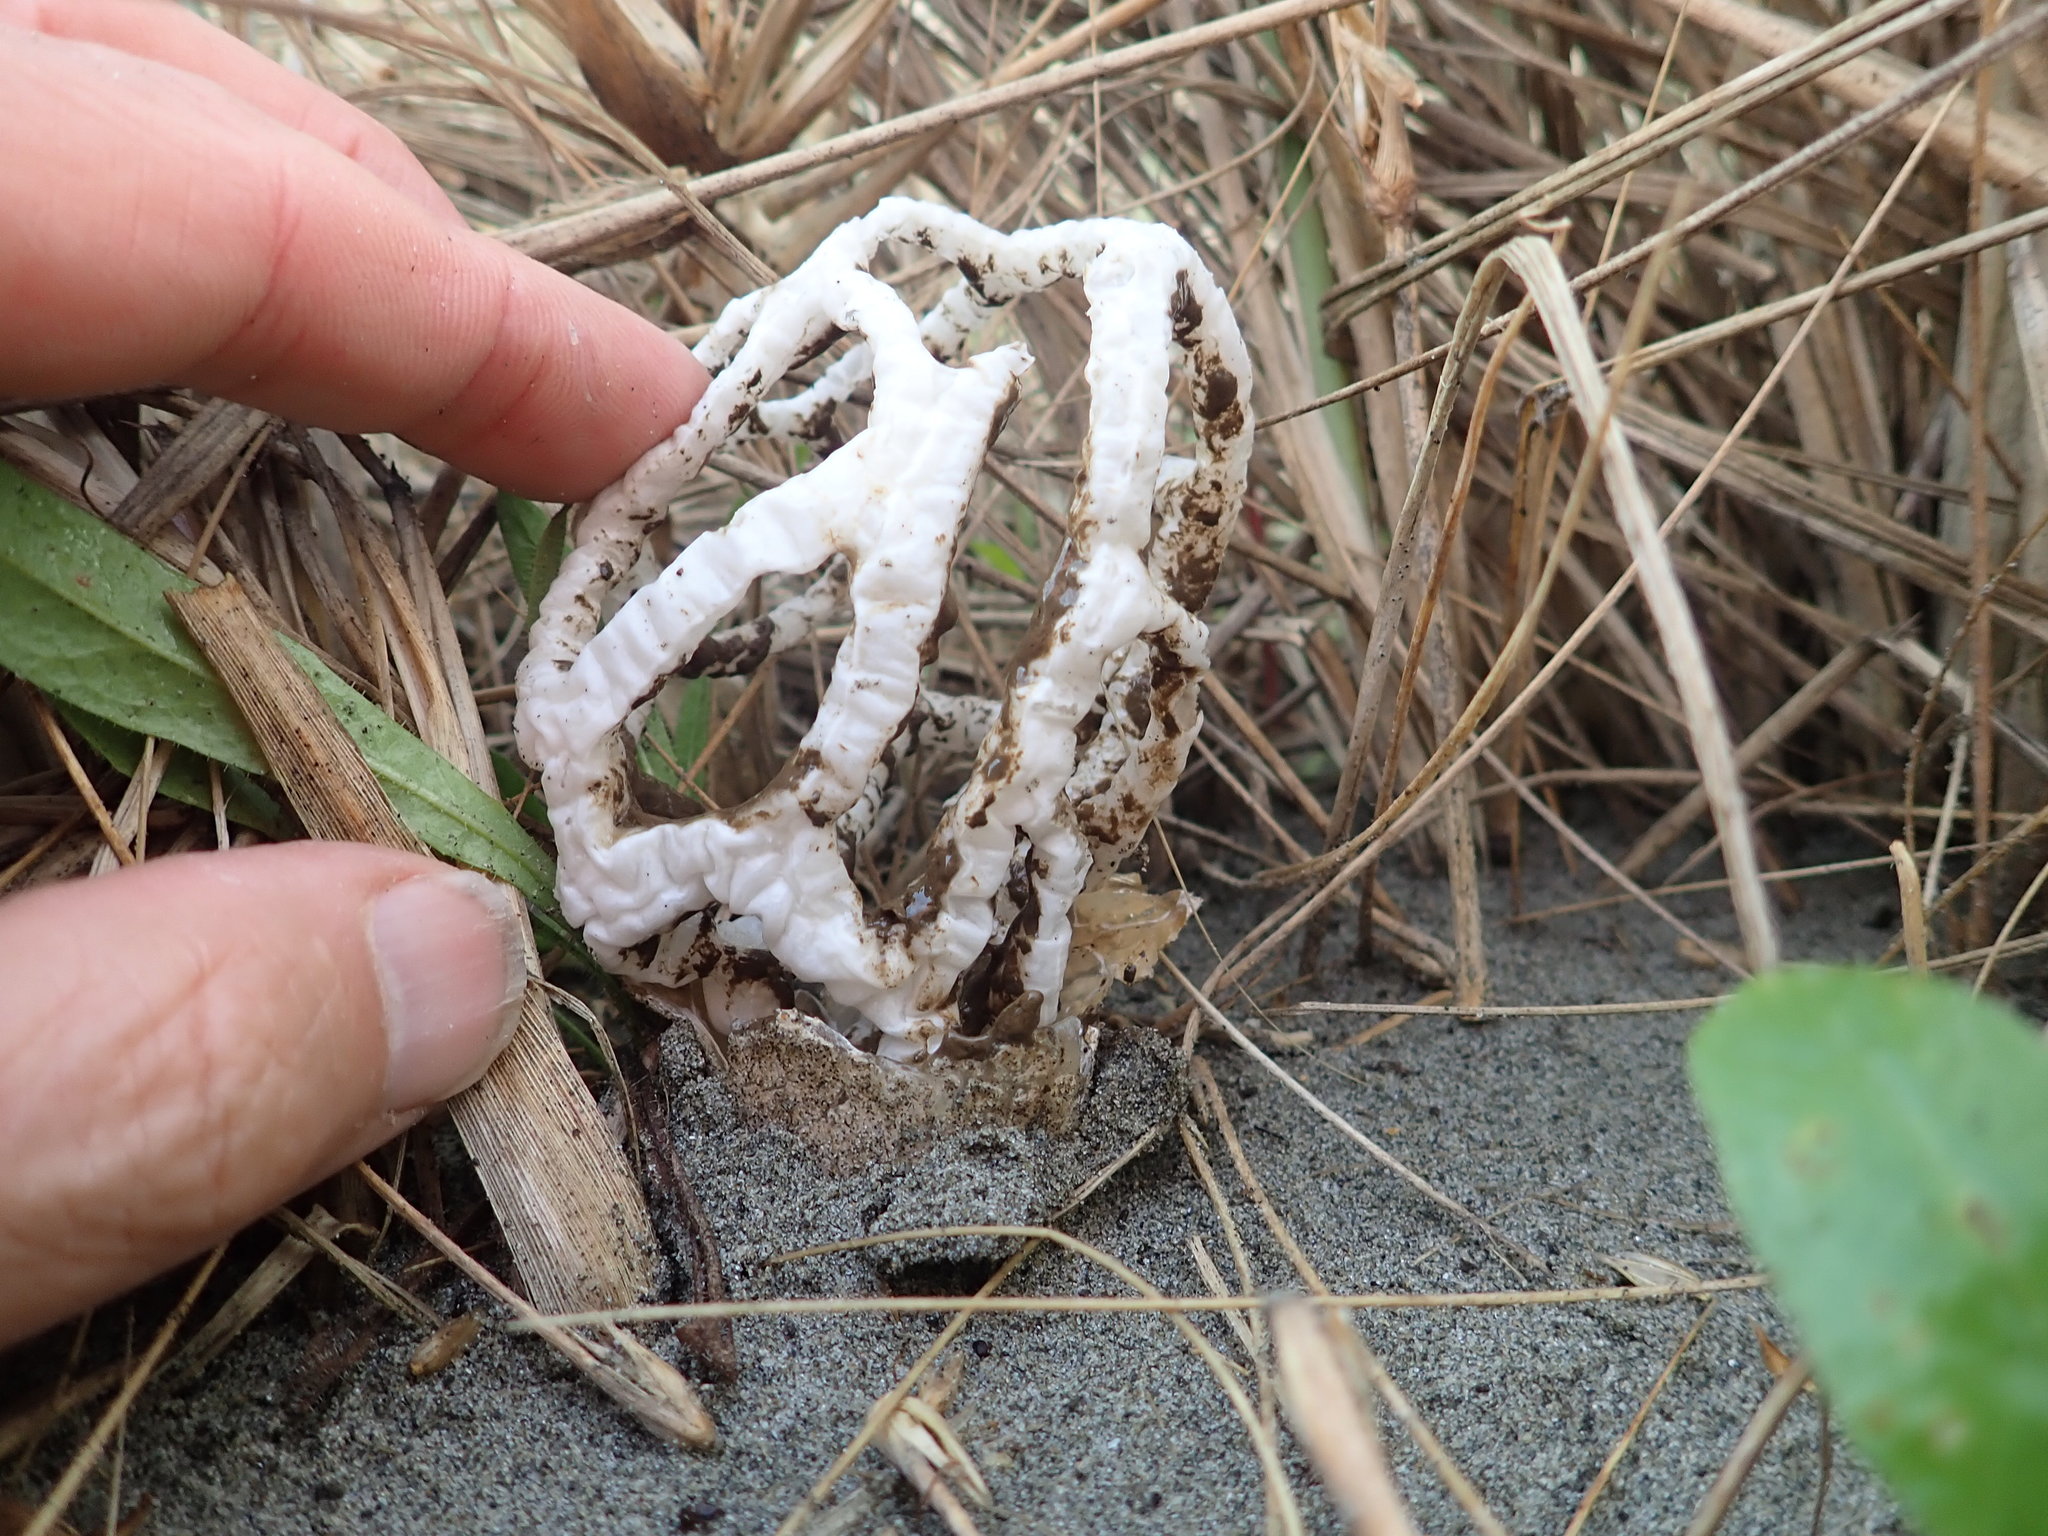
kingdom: Fungi
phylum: Basidiomycota
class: Agaricomycetes
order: Phallales
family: Phallaceae
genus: Ileodictyon
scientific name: Ileodictyon cibarium
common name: Basket fungus
